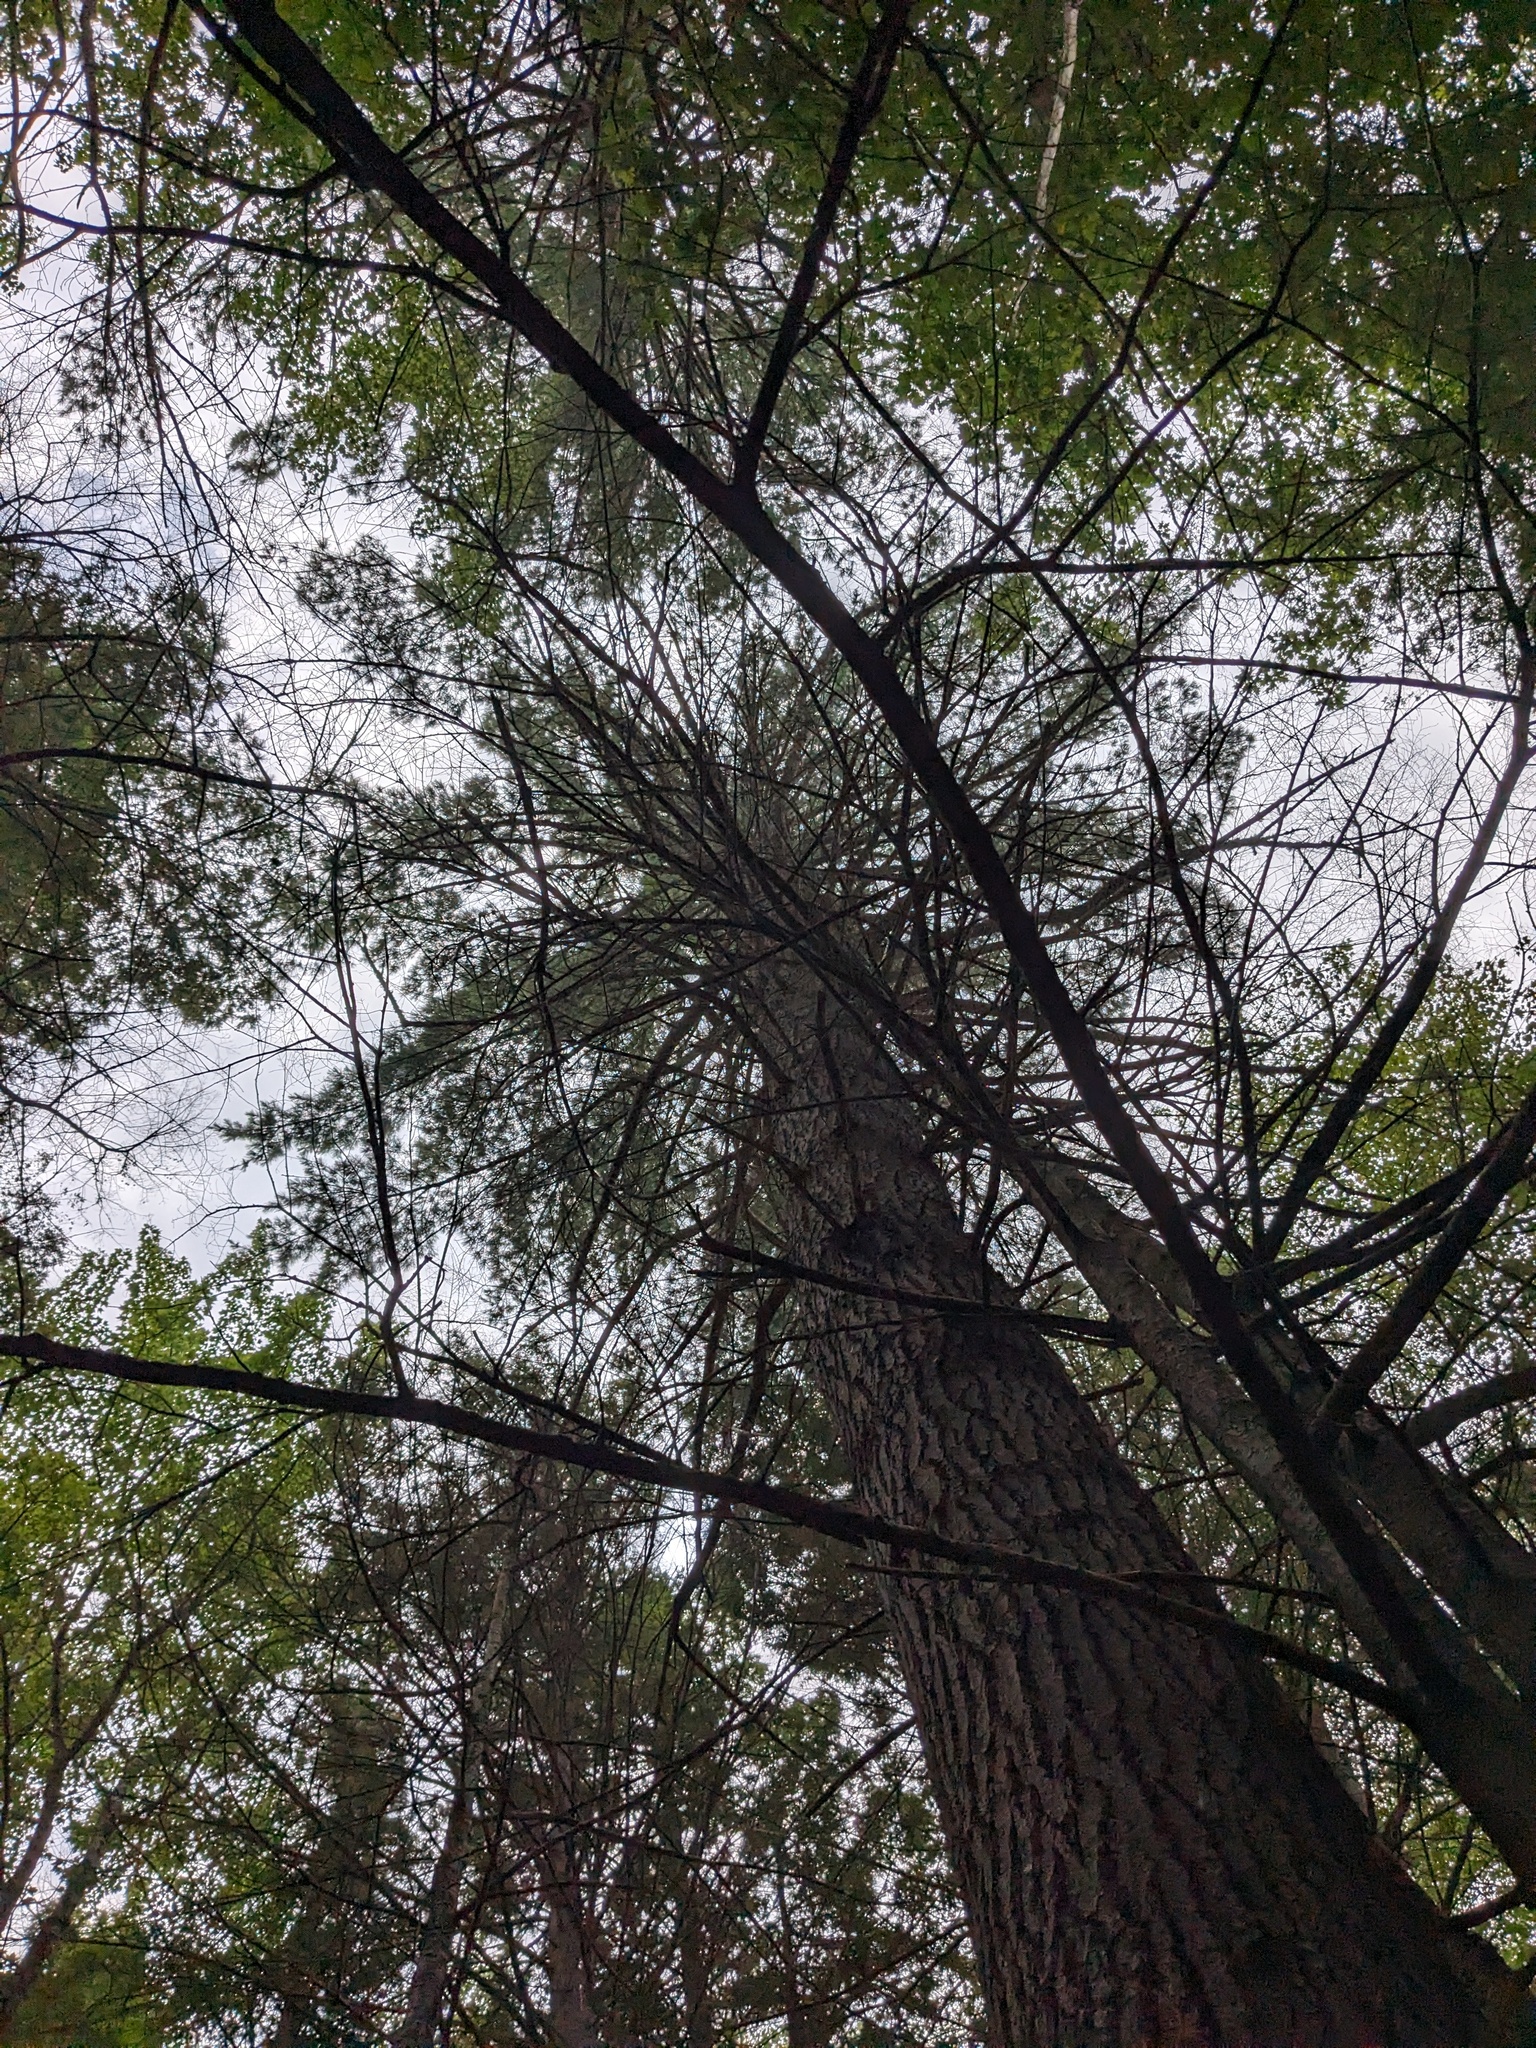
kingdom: Plantae
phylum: Tracheophyta
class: Pinopsida
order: Pinales
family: Pinaceae
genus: Pinus
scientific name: Pinus strobus
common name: Weymouth pine
